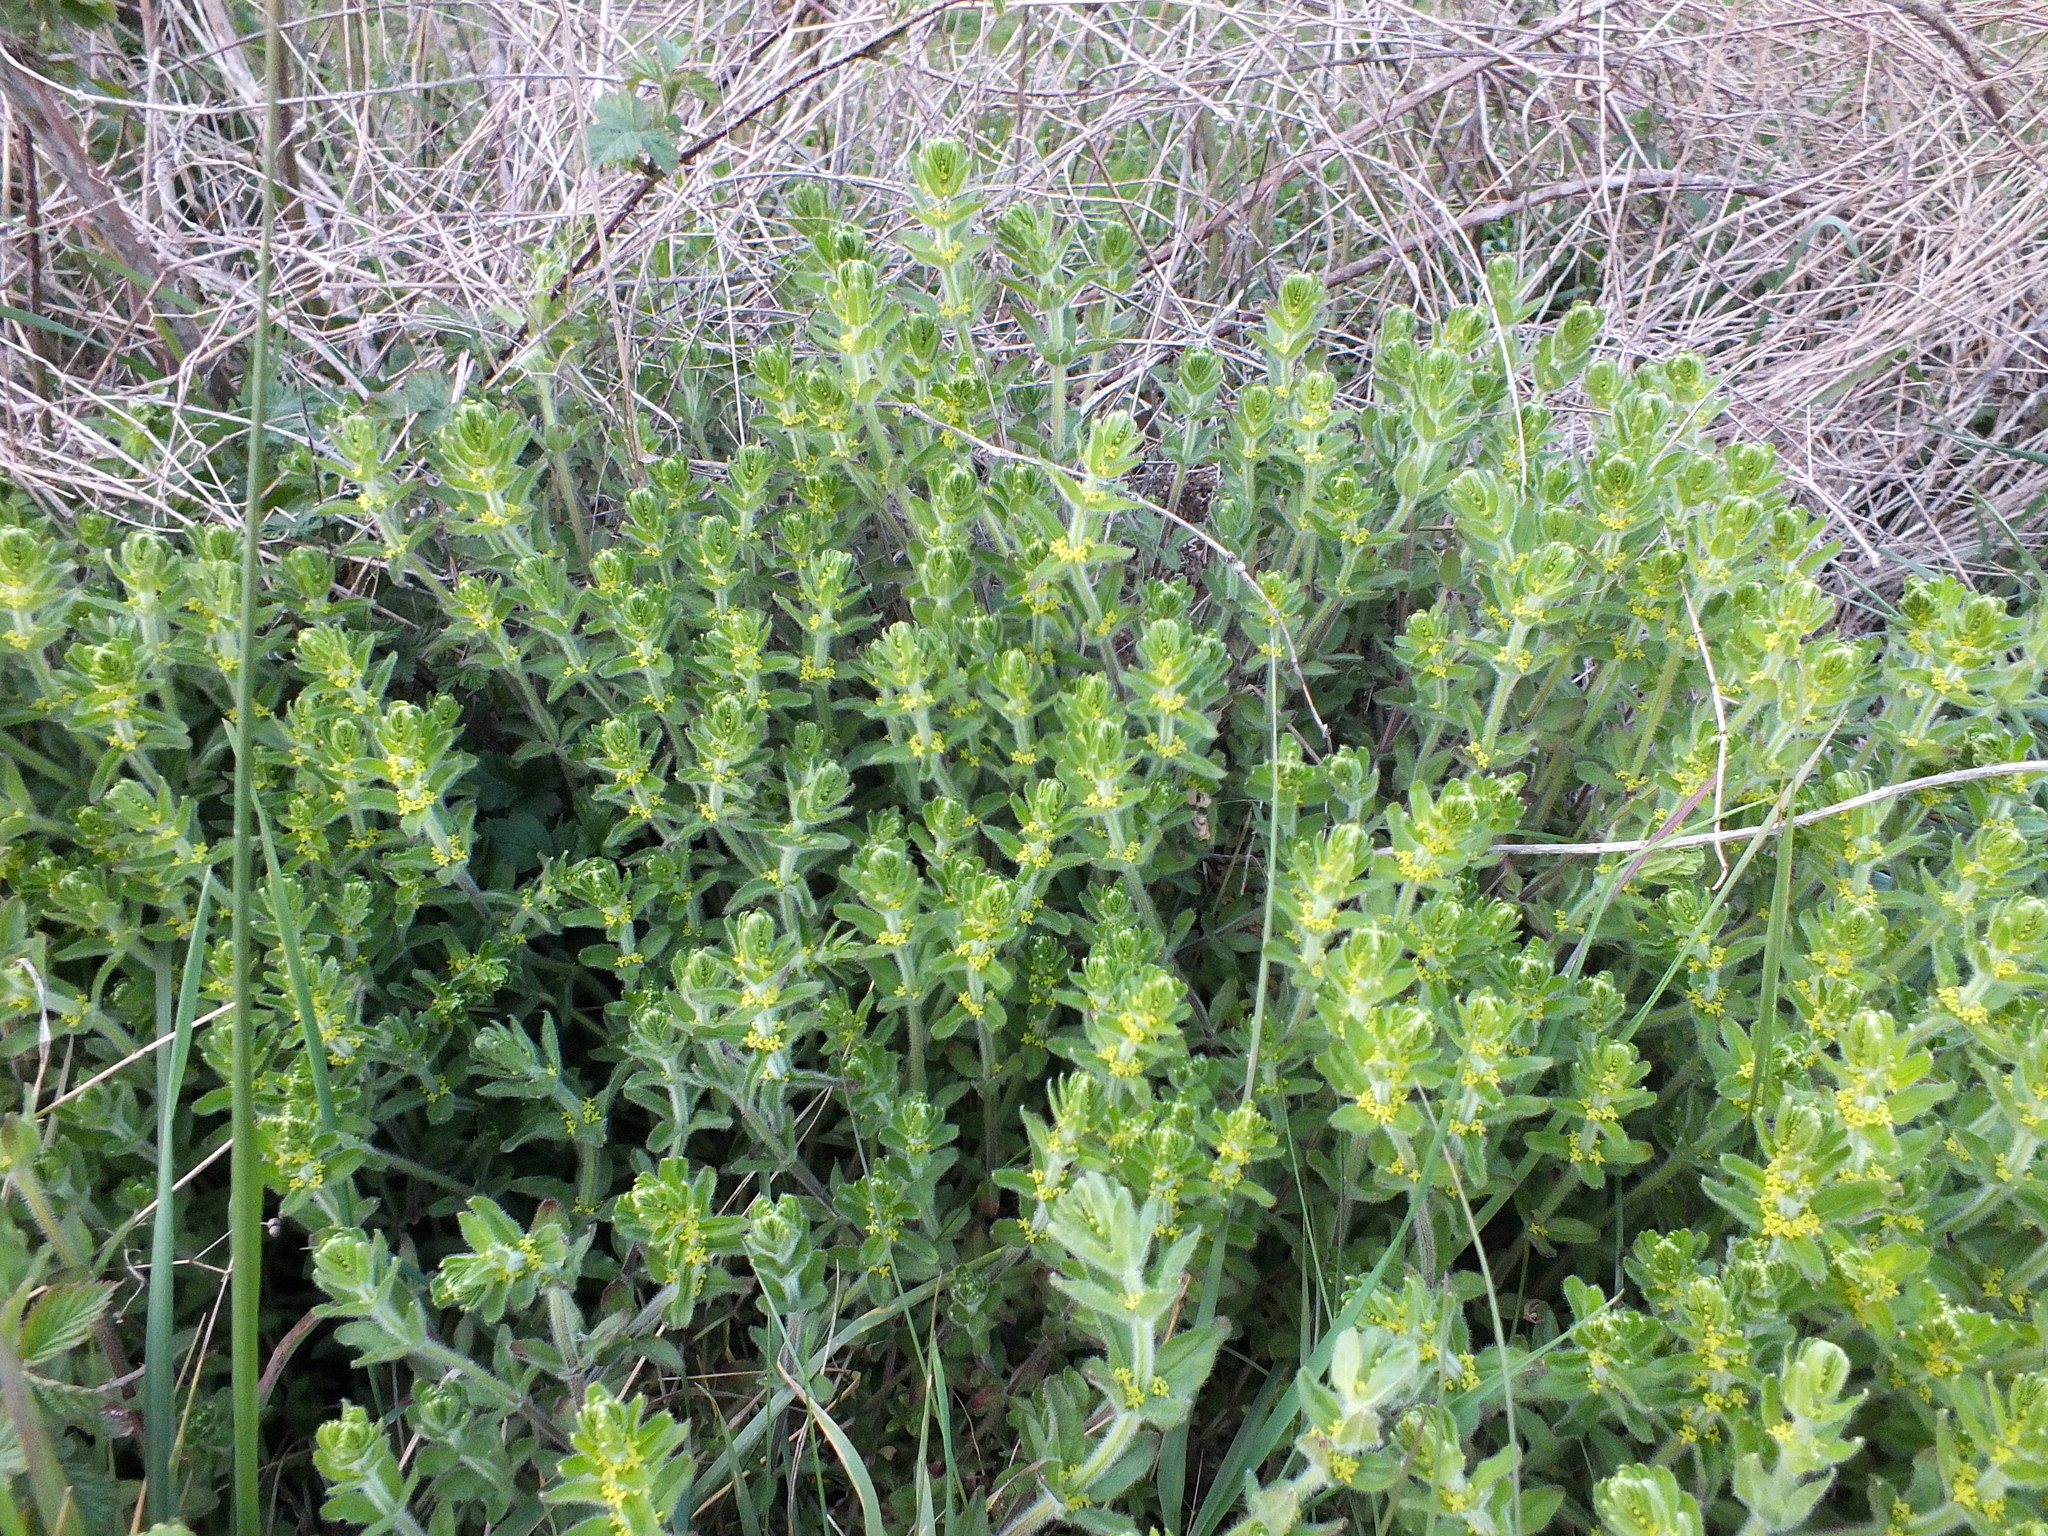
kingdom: Plantae
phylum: Tracheophyta
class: Magnoliopsida
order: Gentianales
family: Rubiaceae
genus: Cruciata
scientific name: Cruciata laevipes
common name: Crosswort
